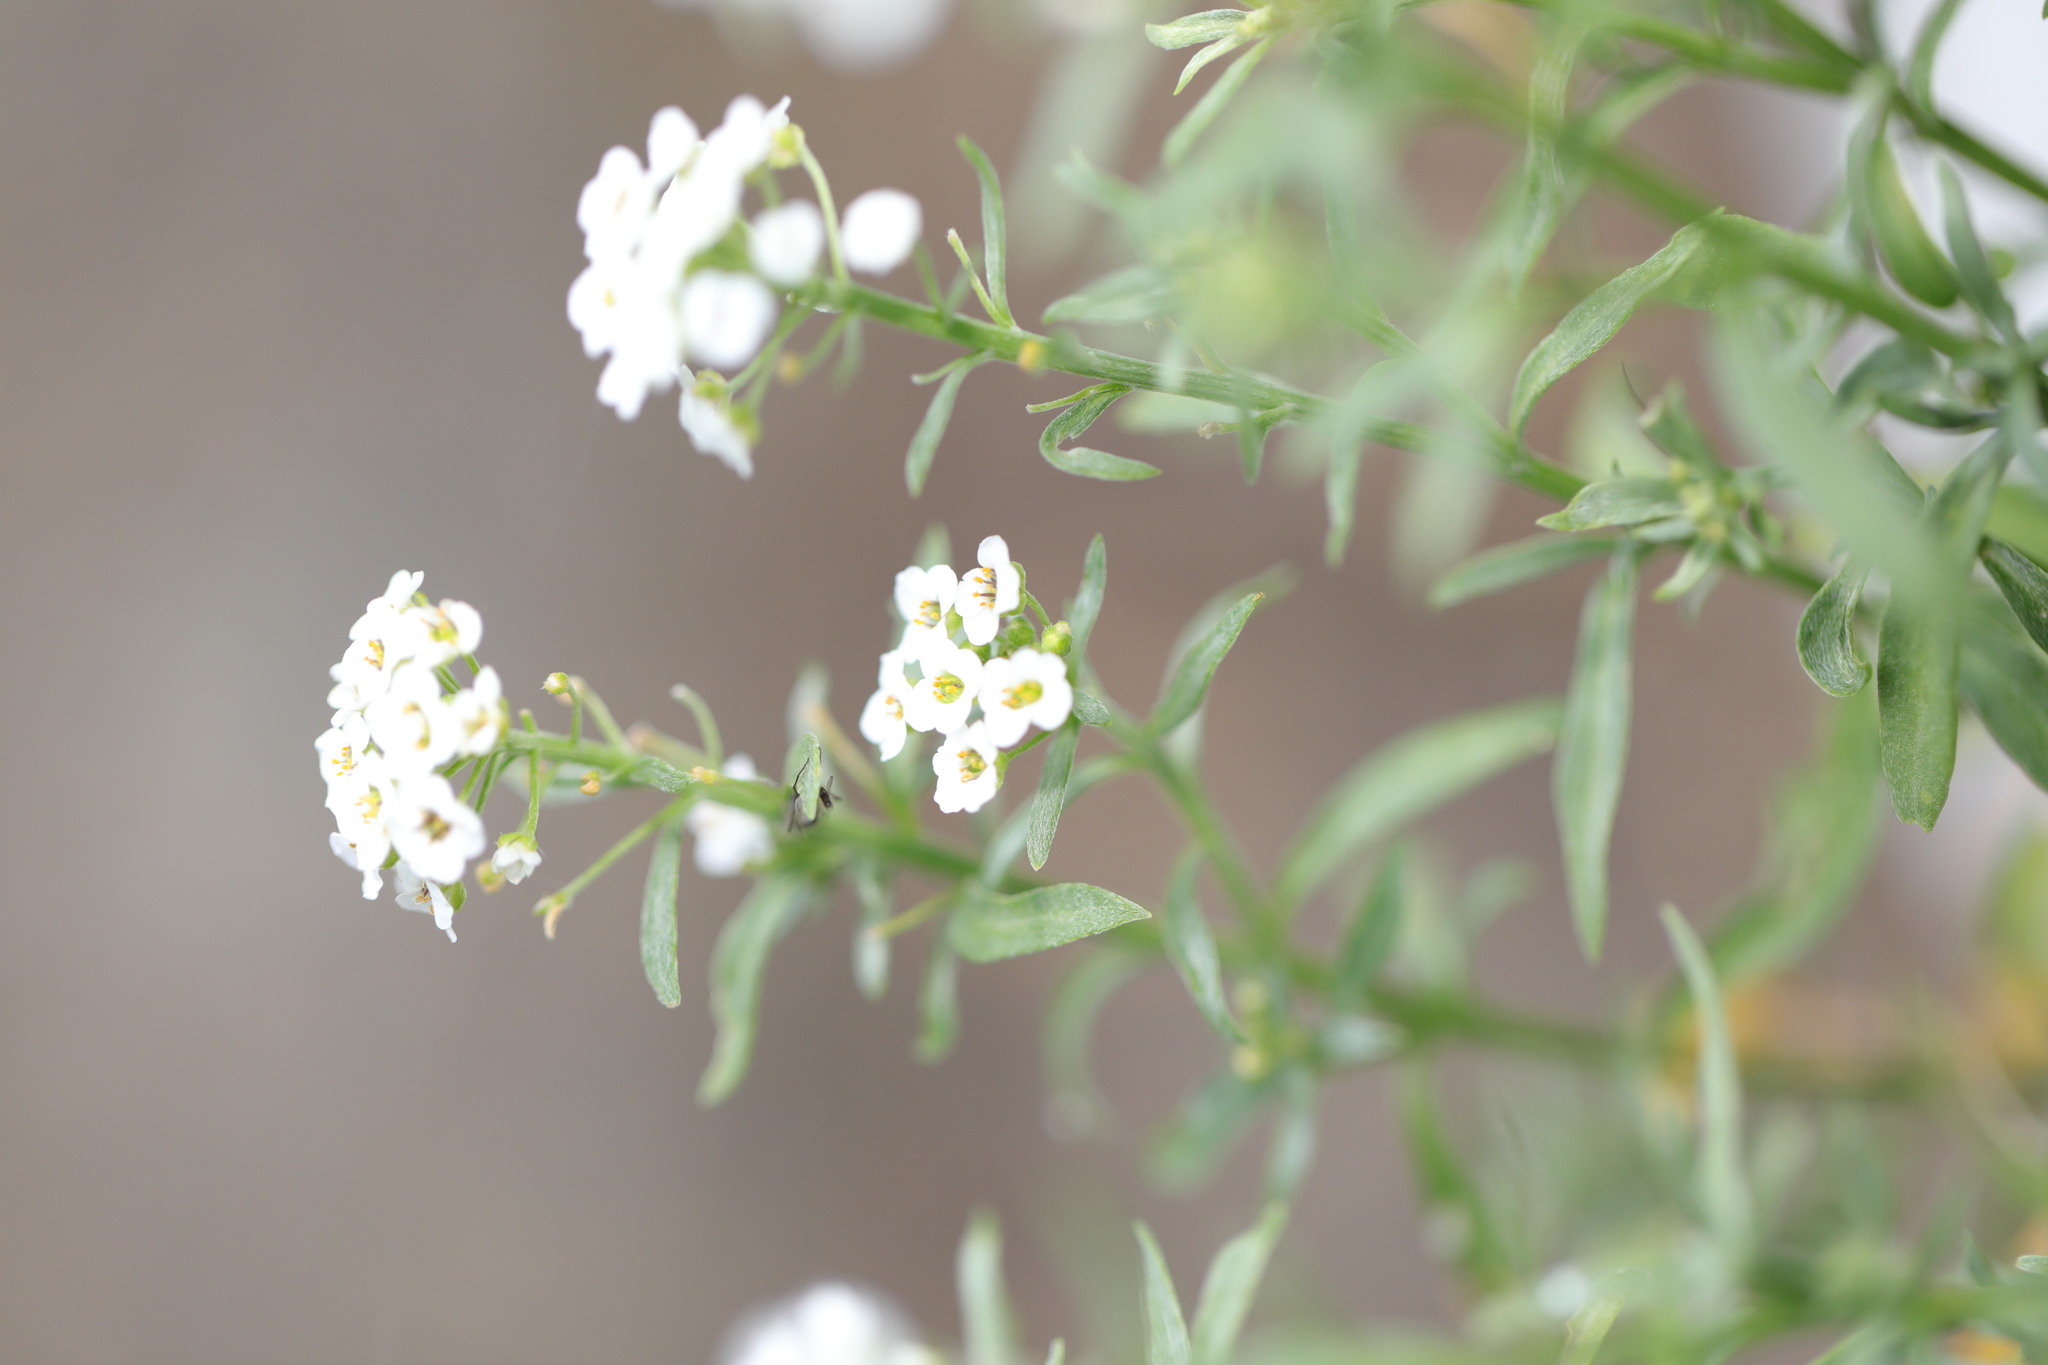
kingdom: Plantae
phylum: Tracheophyta
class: Magnoliopsida
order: Brassicales
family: Brassicaceae
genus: Lobularia
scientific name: Lobularia maritima
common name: Sweet alison
